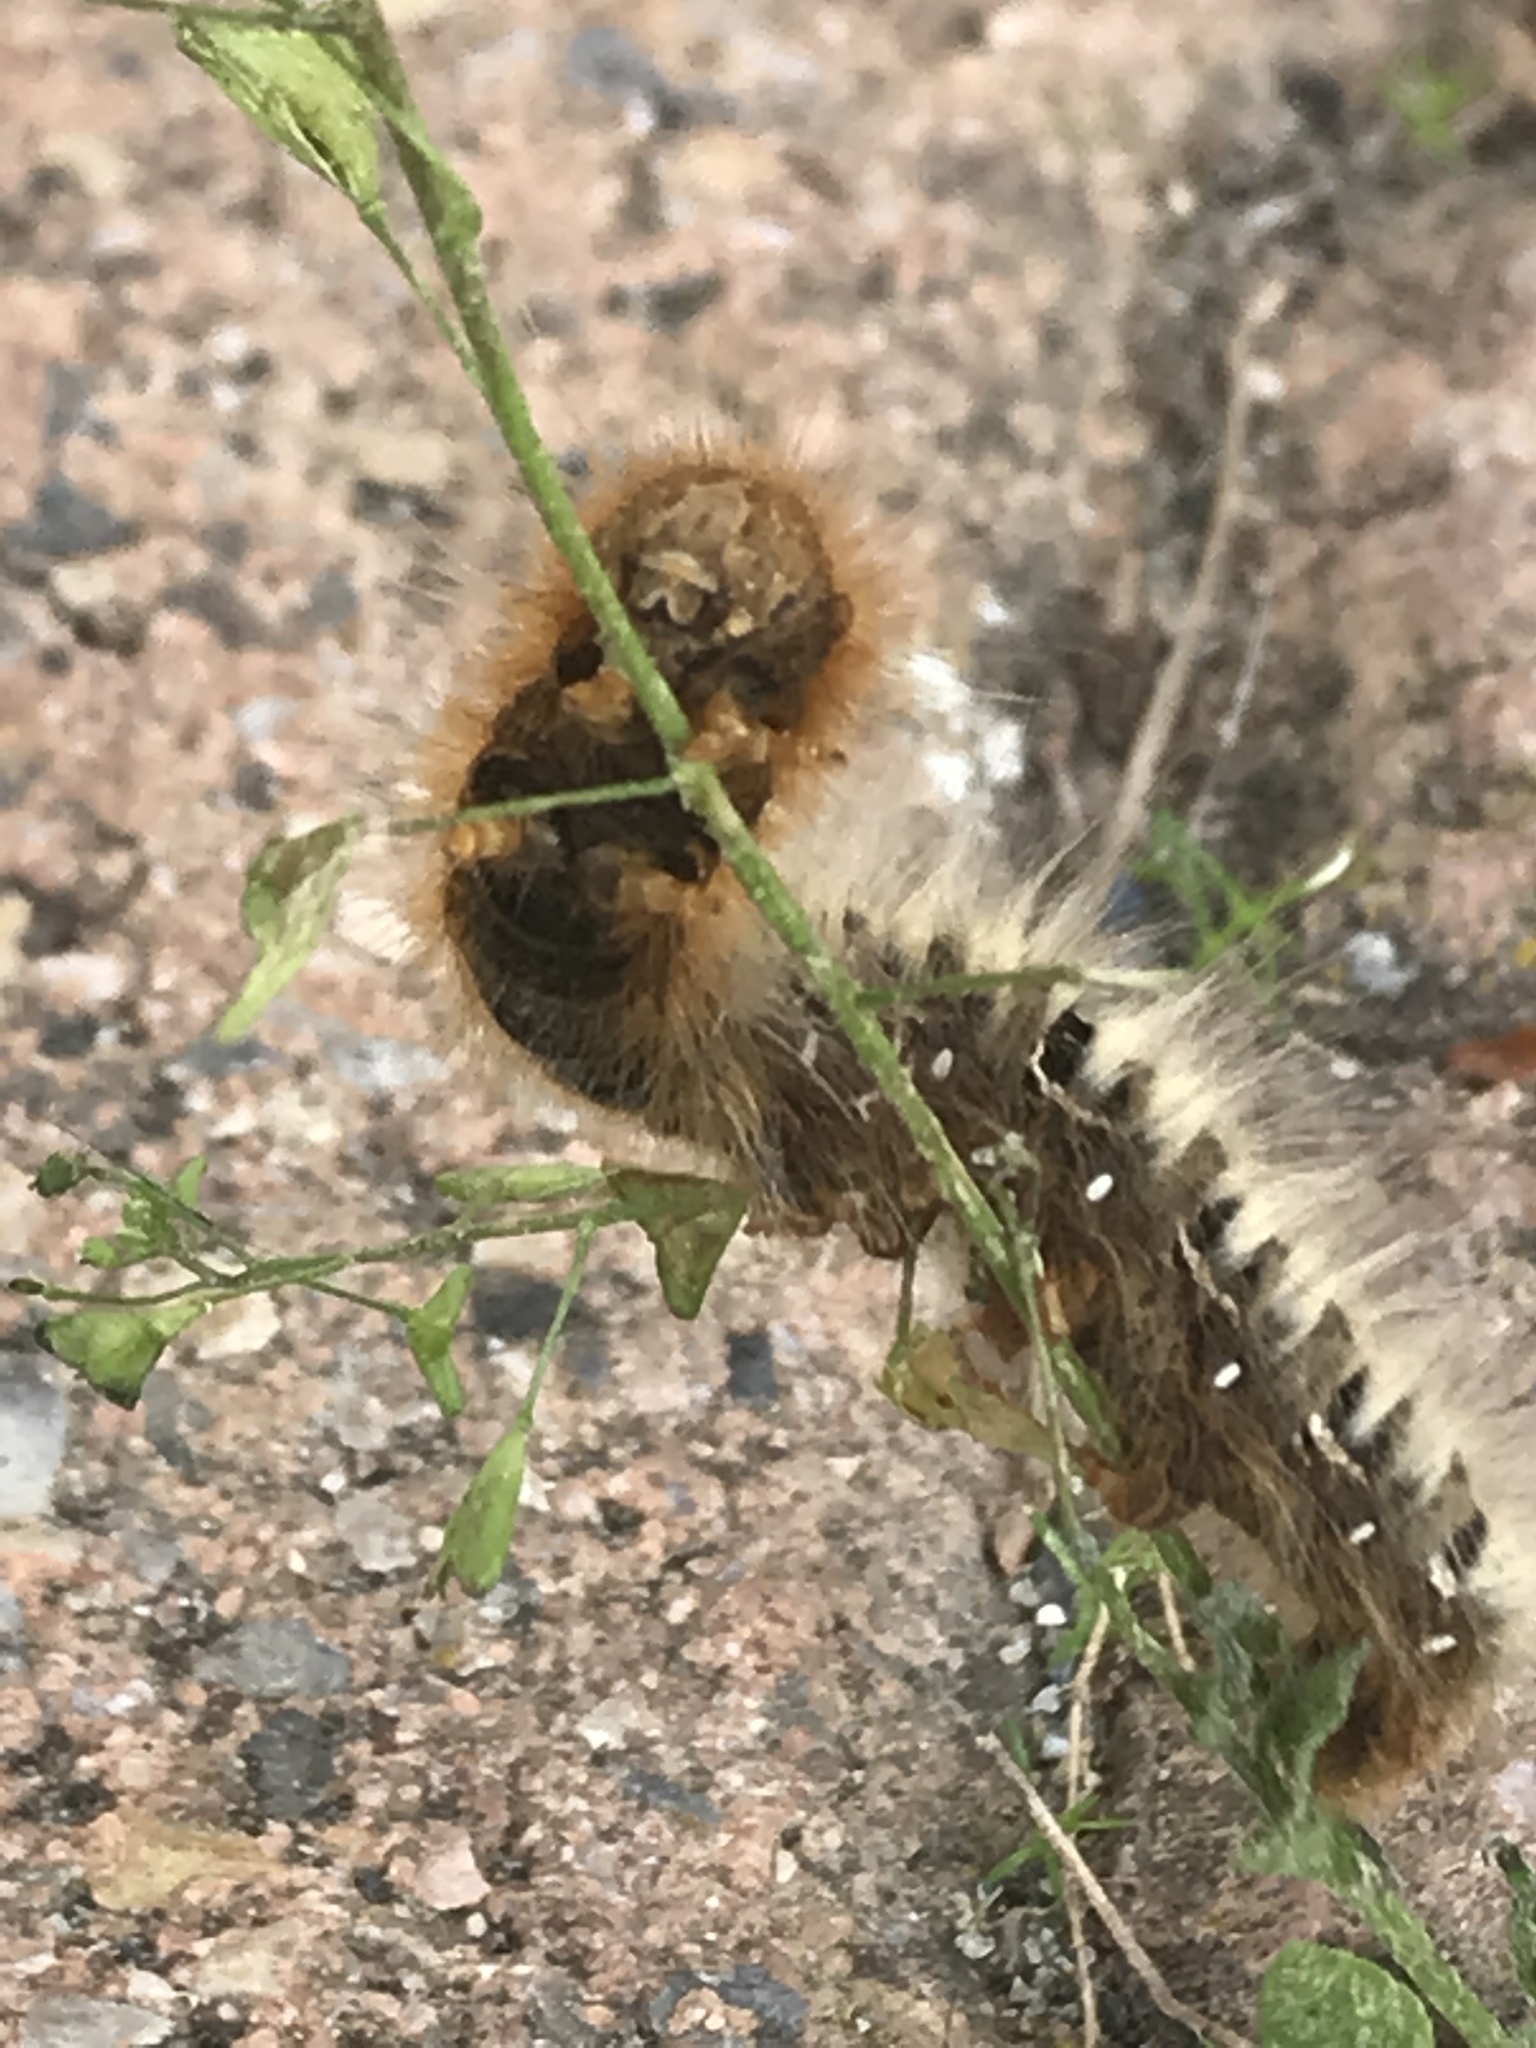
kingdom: Animalia
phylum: Arthropoda
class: Insecta
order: Lepidoptera
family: Lasiocampidae
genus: Lasiocampa
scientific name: Lasiocampa quercus
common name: Oak eggar
